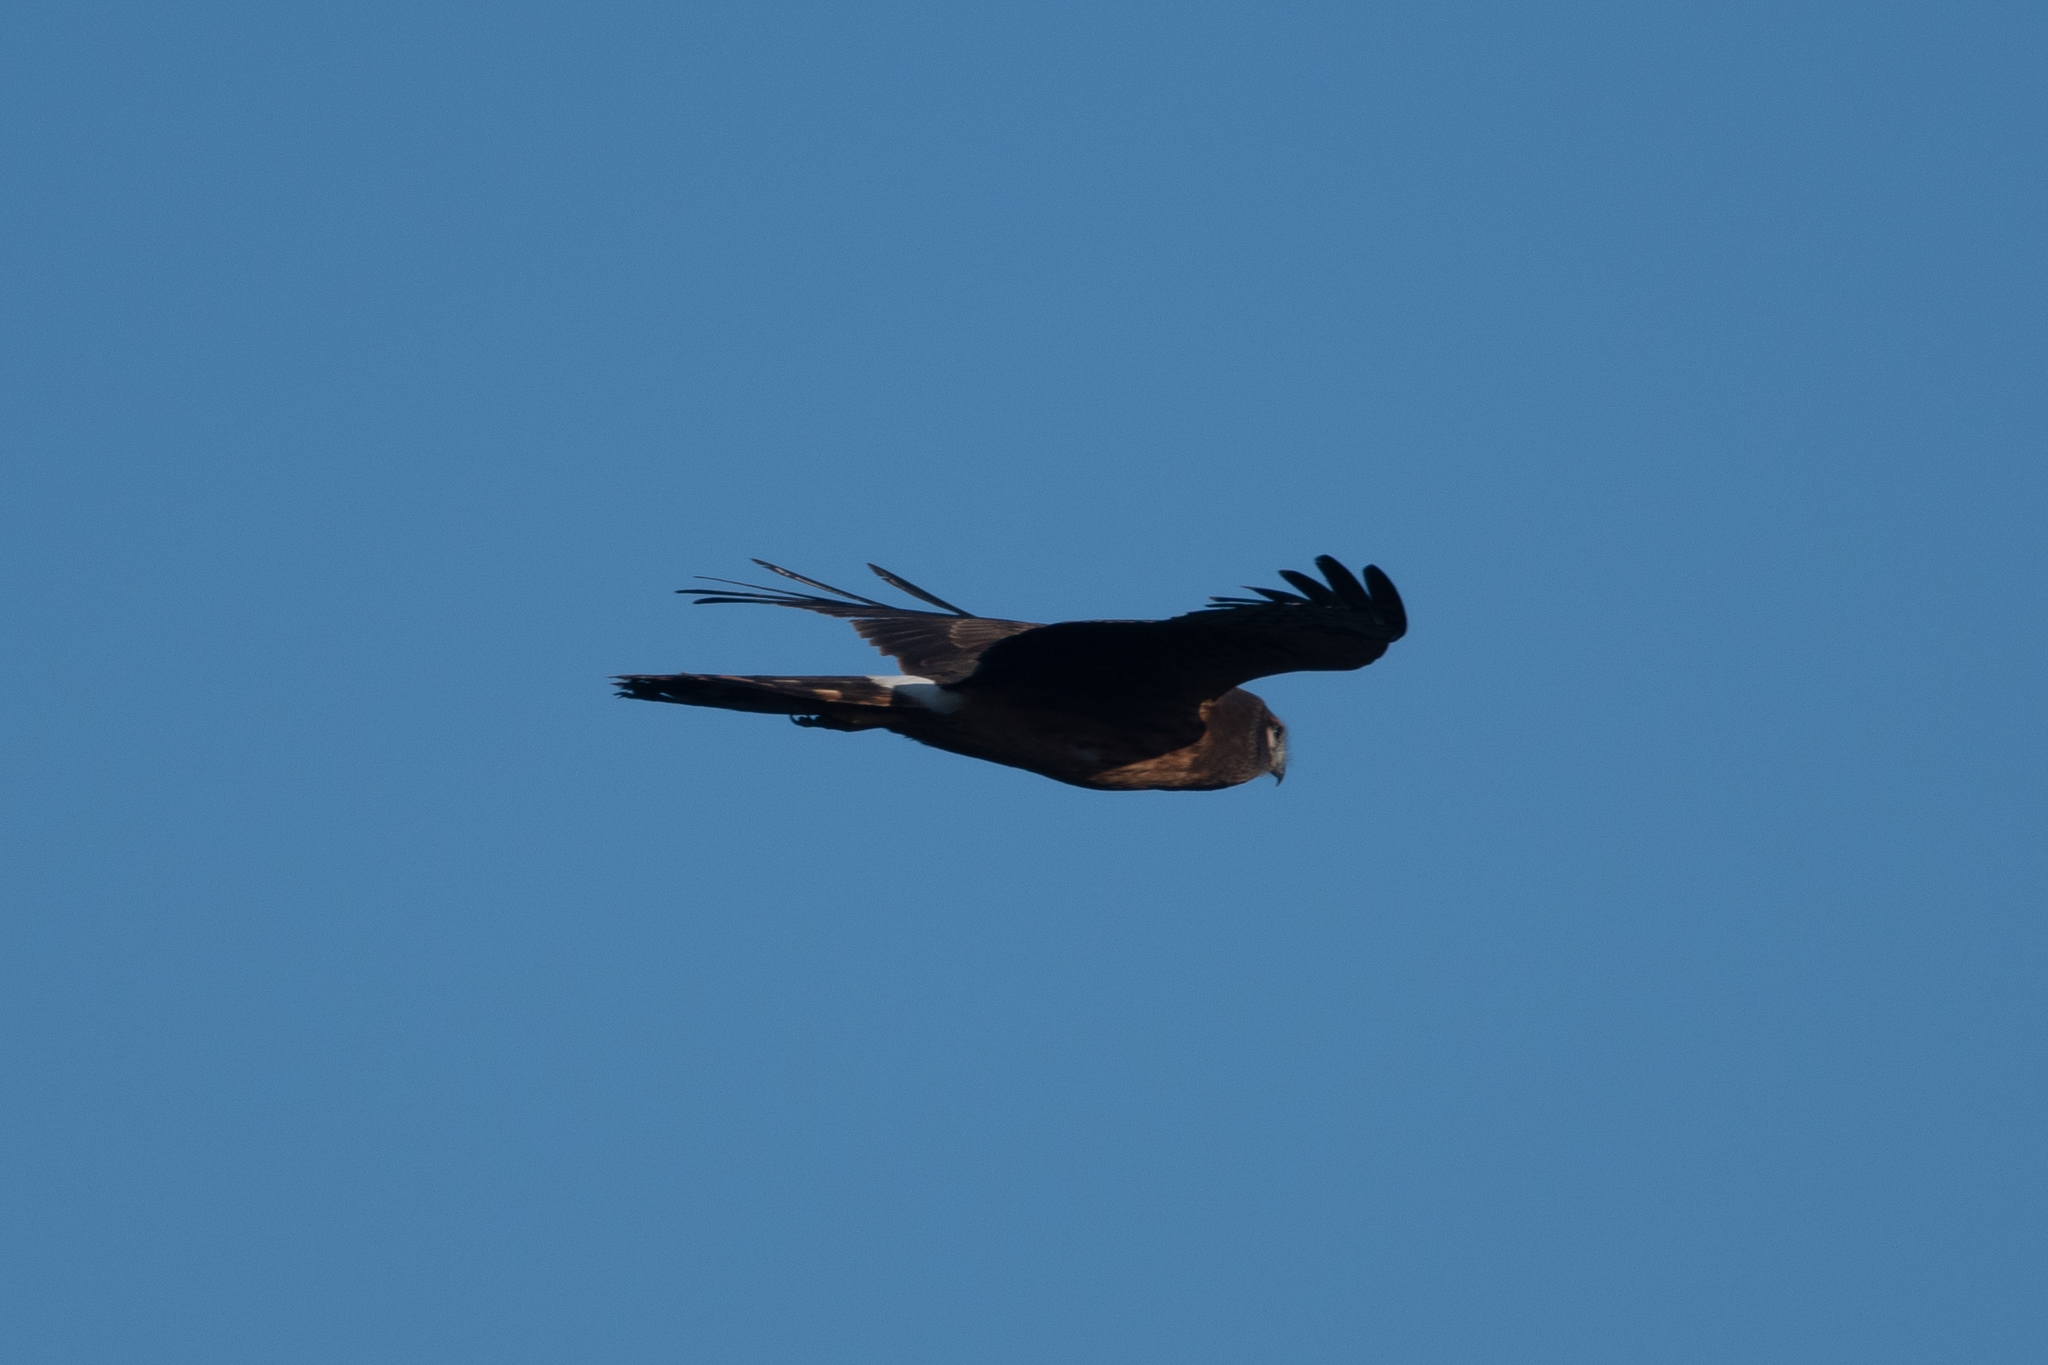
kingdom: Animalia
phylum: Chordata
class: Aves
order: Accipitriformes
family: Accipitridae
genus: Circus
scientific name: Circus cyaneus
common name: Hen harrier
